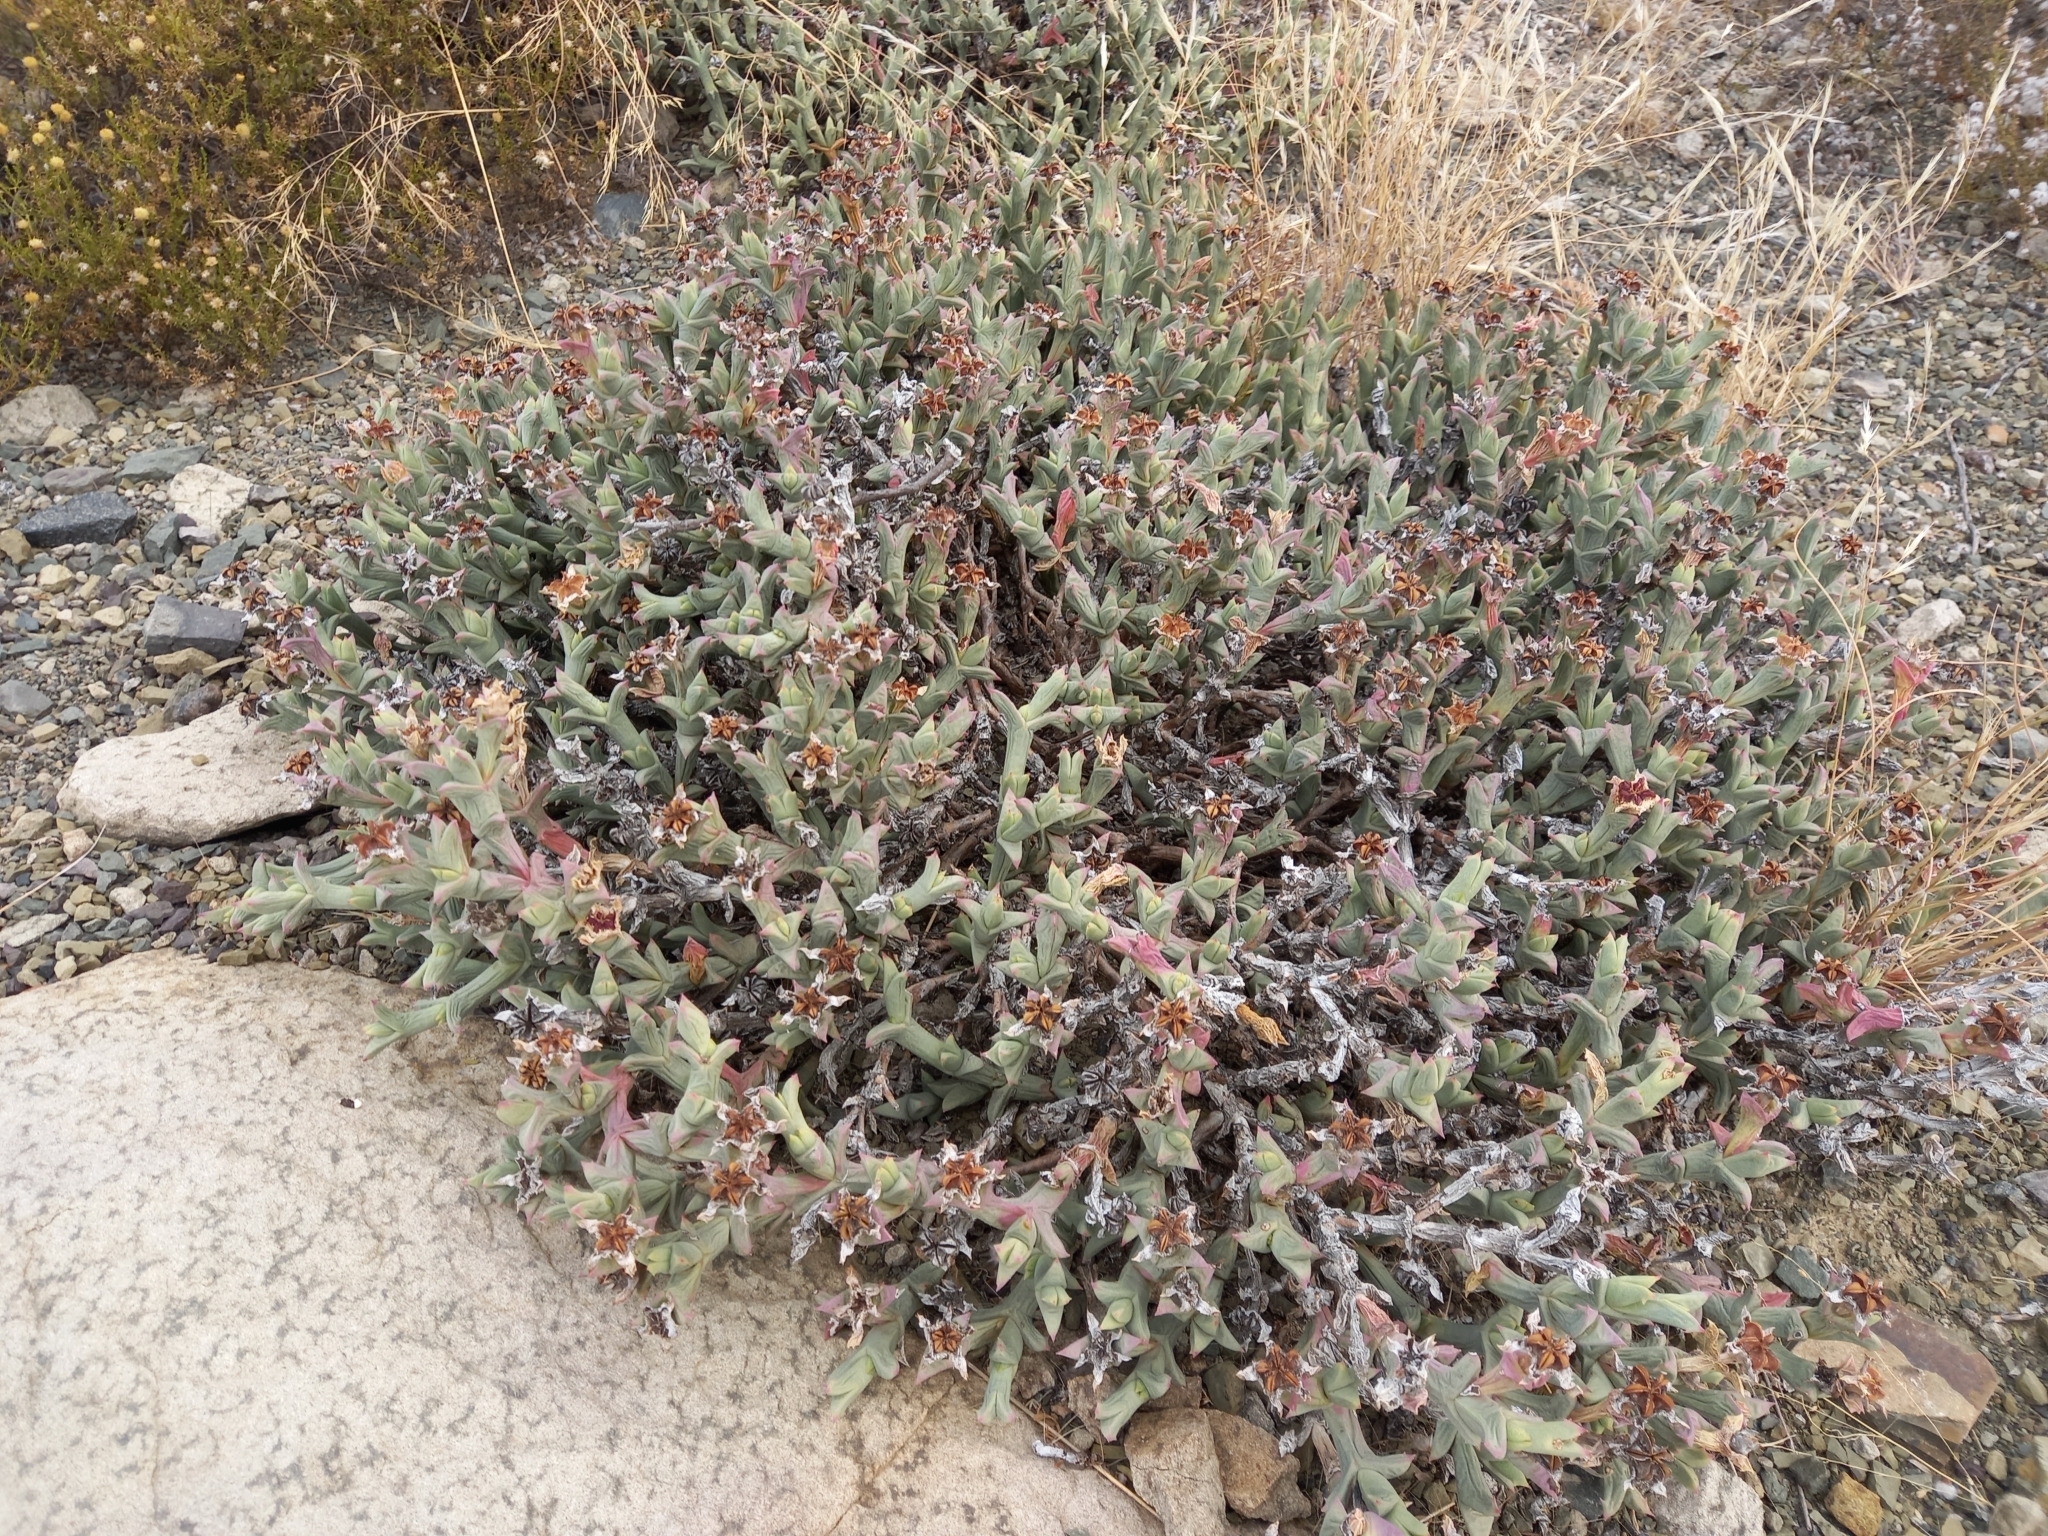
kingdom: Plantae
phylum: Tracheophyta
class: Magnoliopsida
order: Caryophyllales
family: Aizoaceae
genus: Ruschia
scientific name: Ruschia perfoliata
